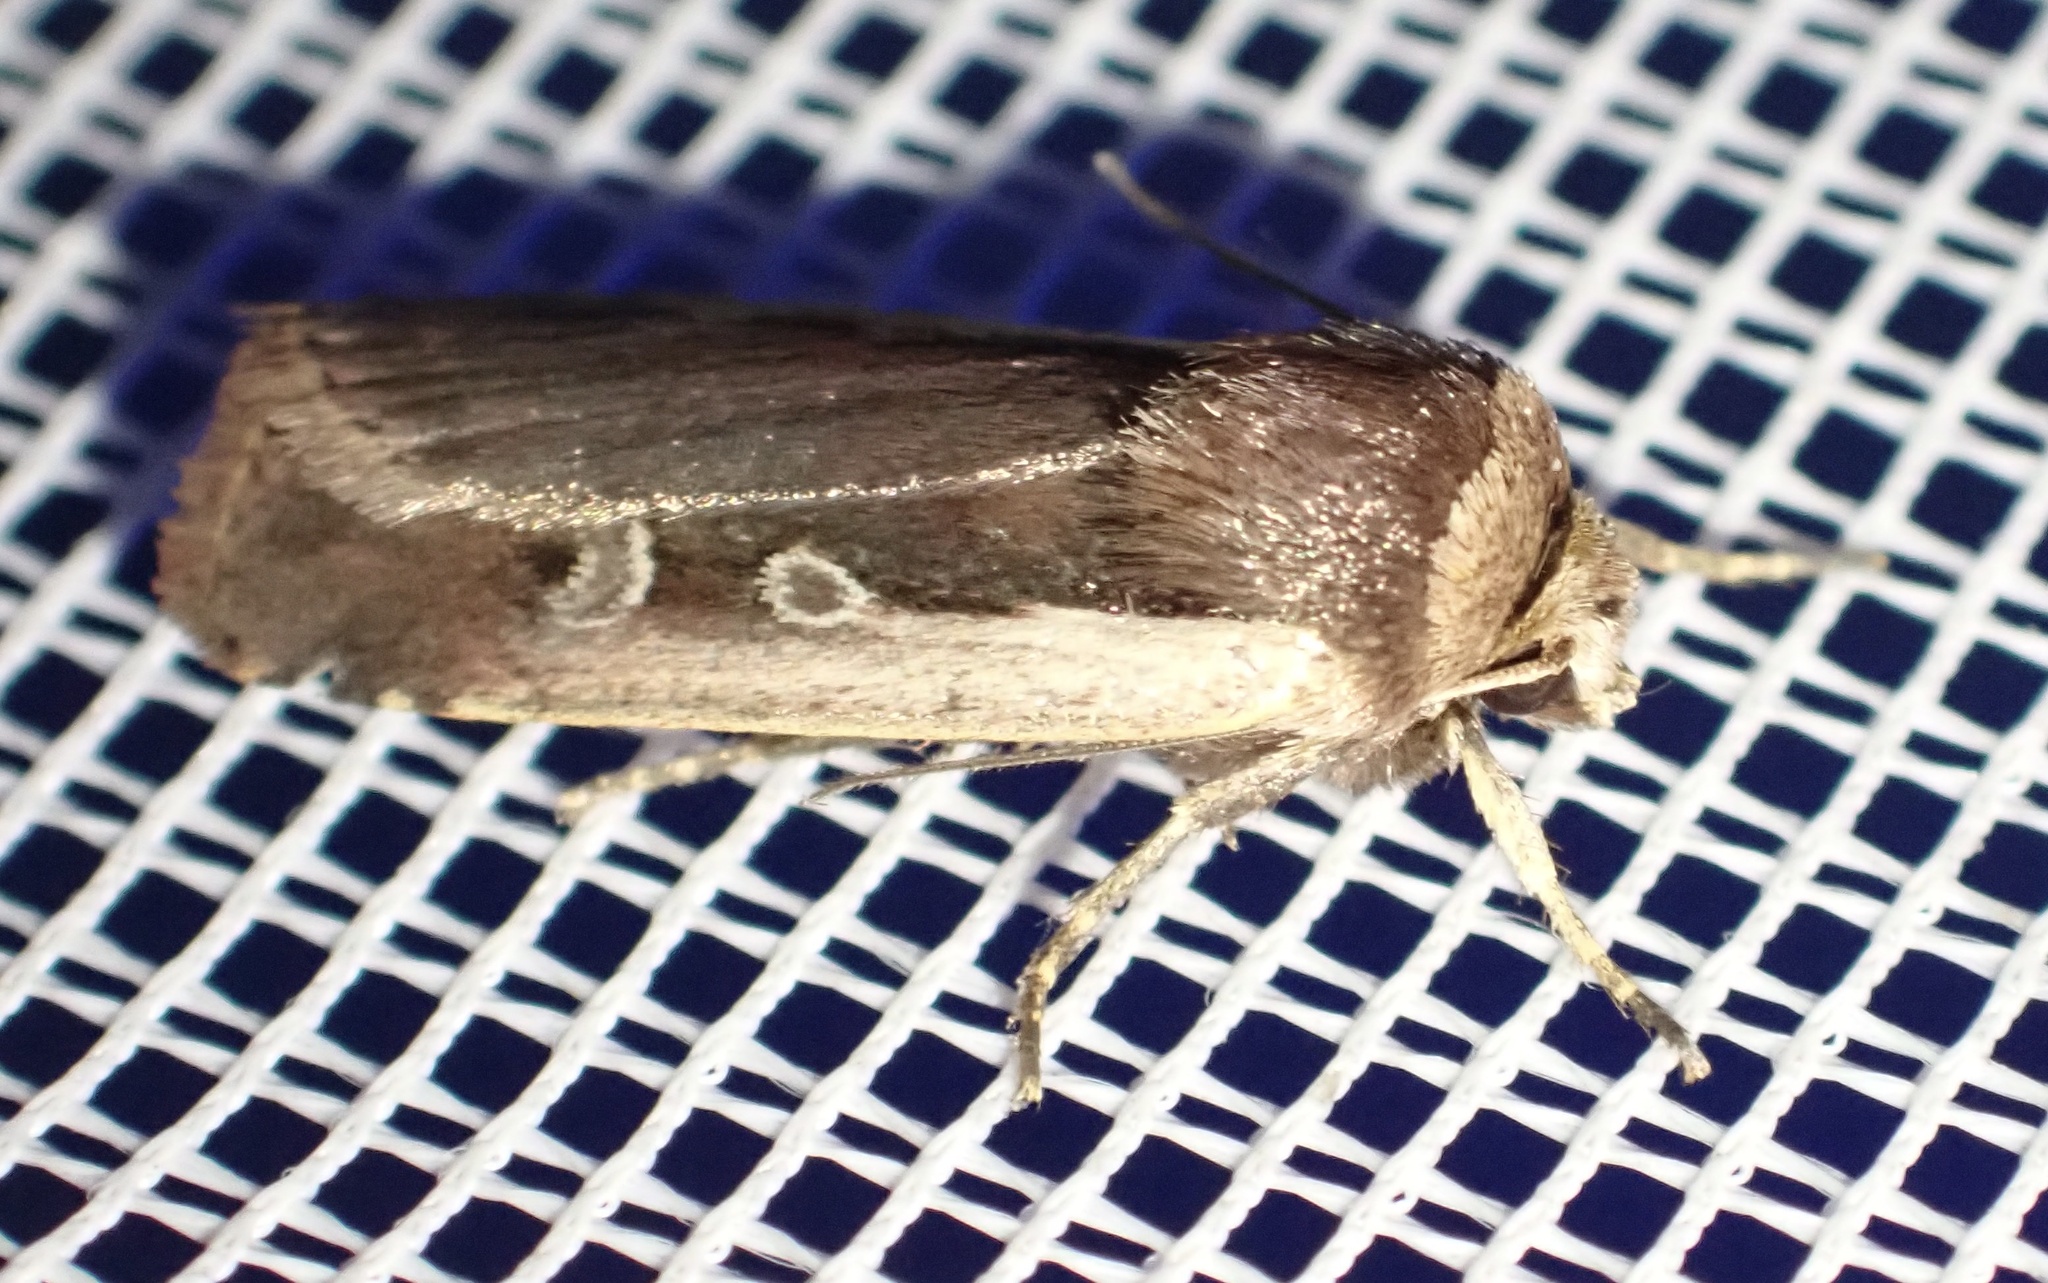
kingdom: Animalia
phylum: Arthropoda
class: Insecta
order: Lepidoptera
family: Noctuidae
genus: Ochropleura
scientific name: Ochropleura plecta
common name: Flame shoulder
